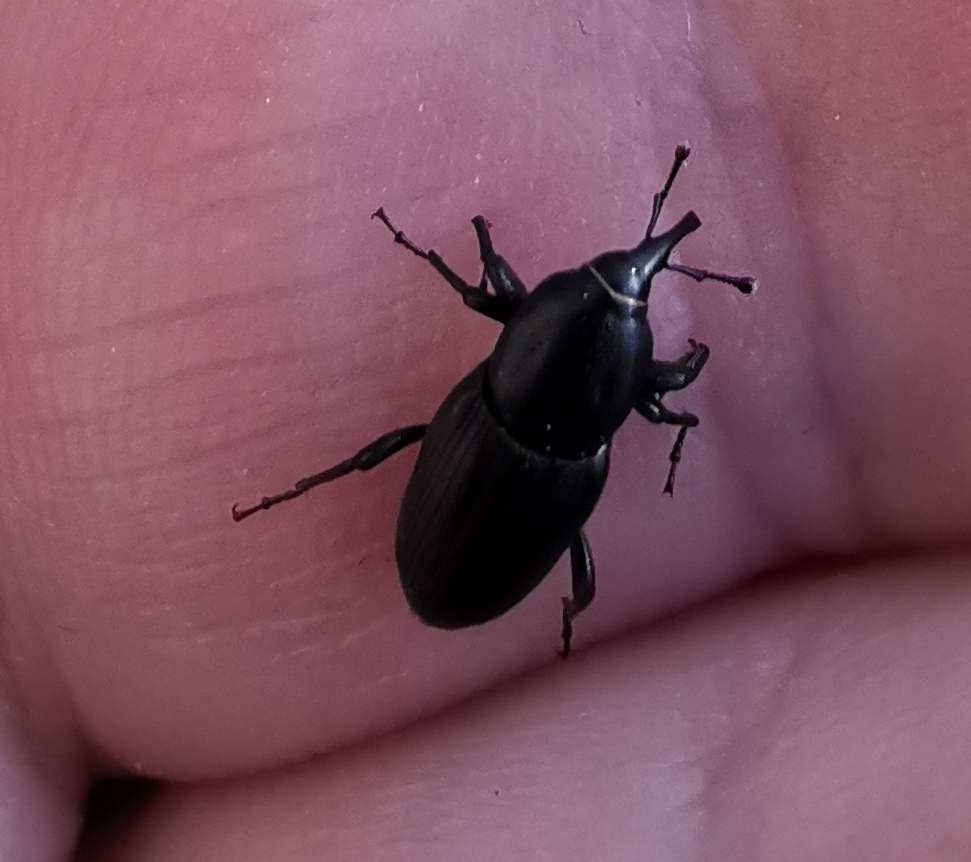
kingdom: Animalia
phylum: Arthropoda
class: Insecta
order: Coleoptera
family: Dryophthoridae
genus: Sphenophorus
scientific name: Sphenophorus striatopunctatus
